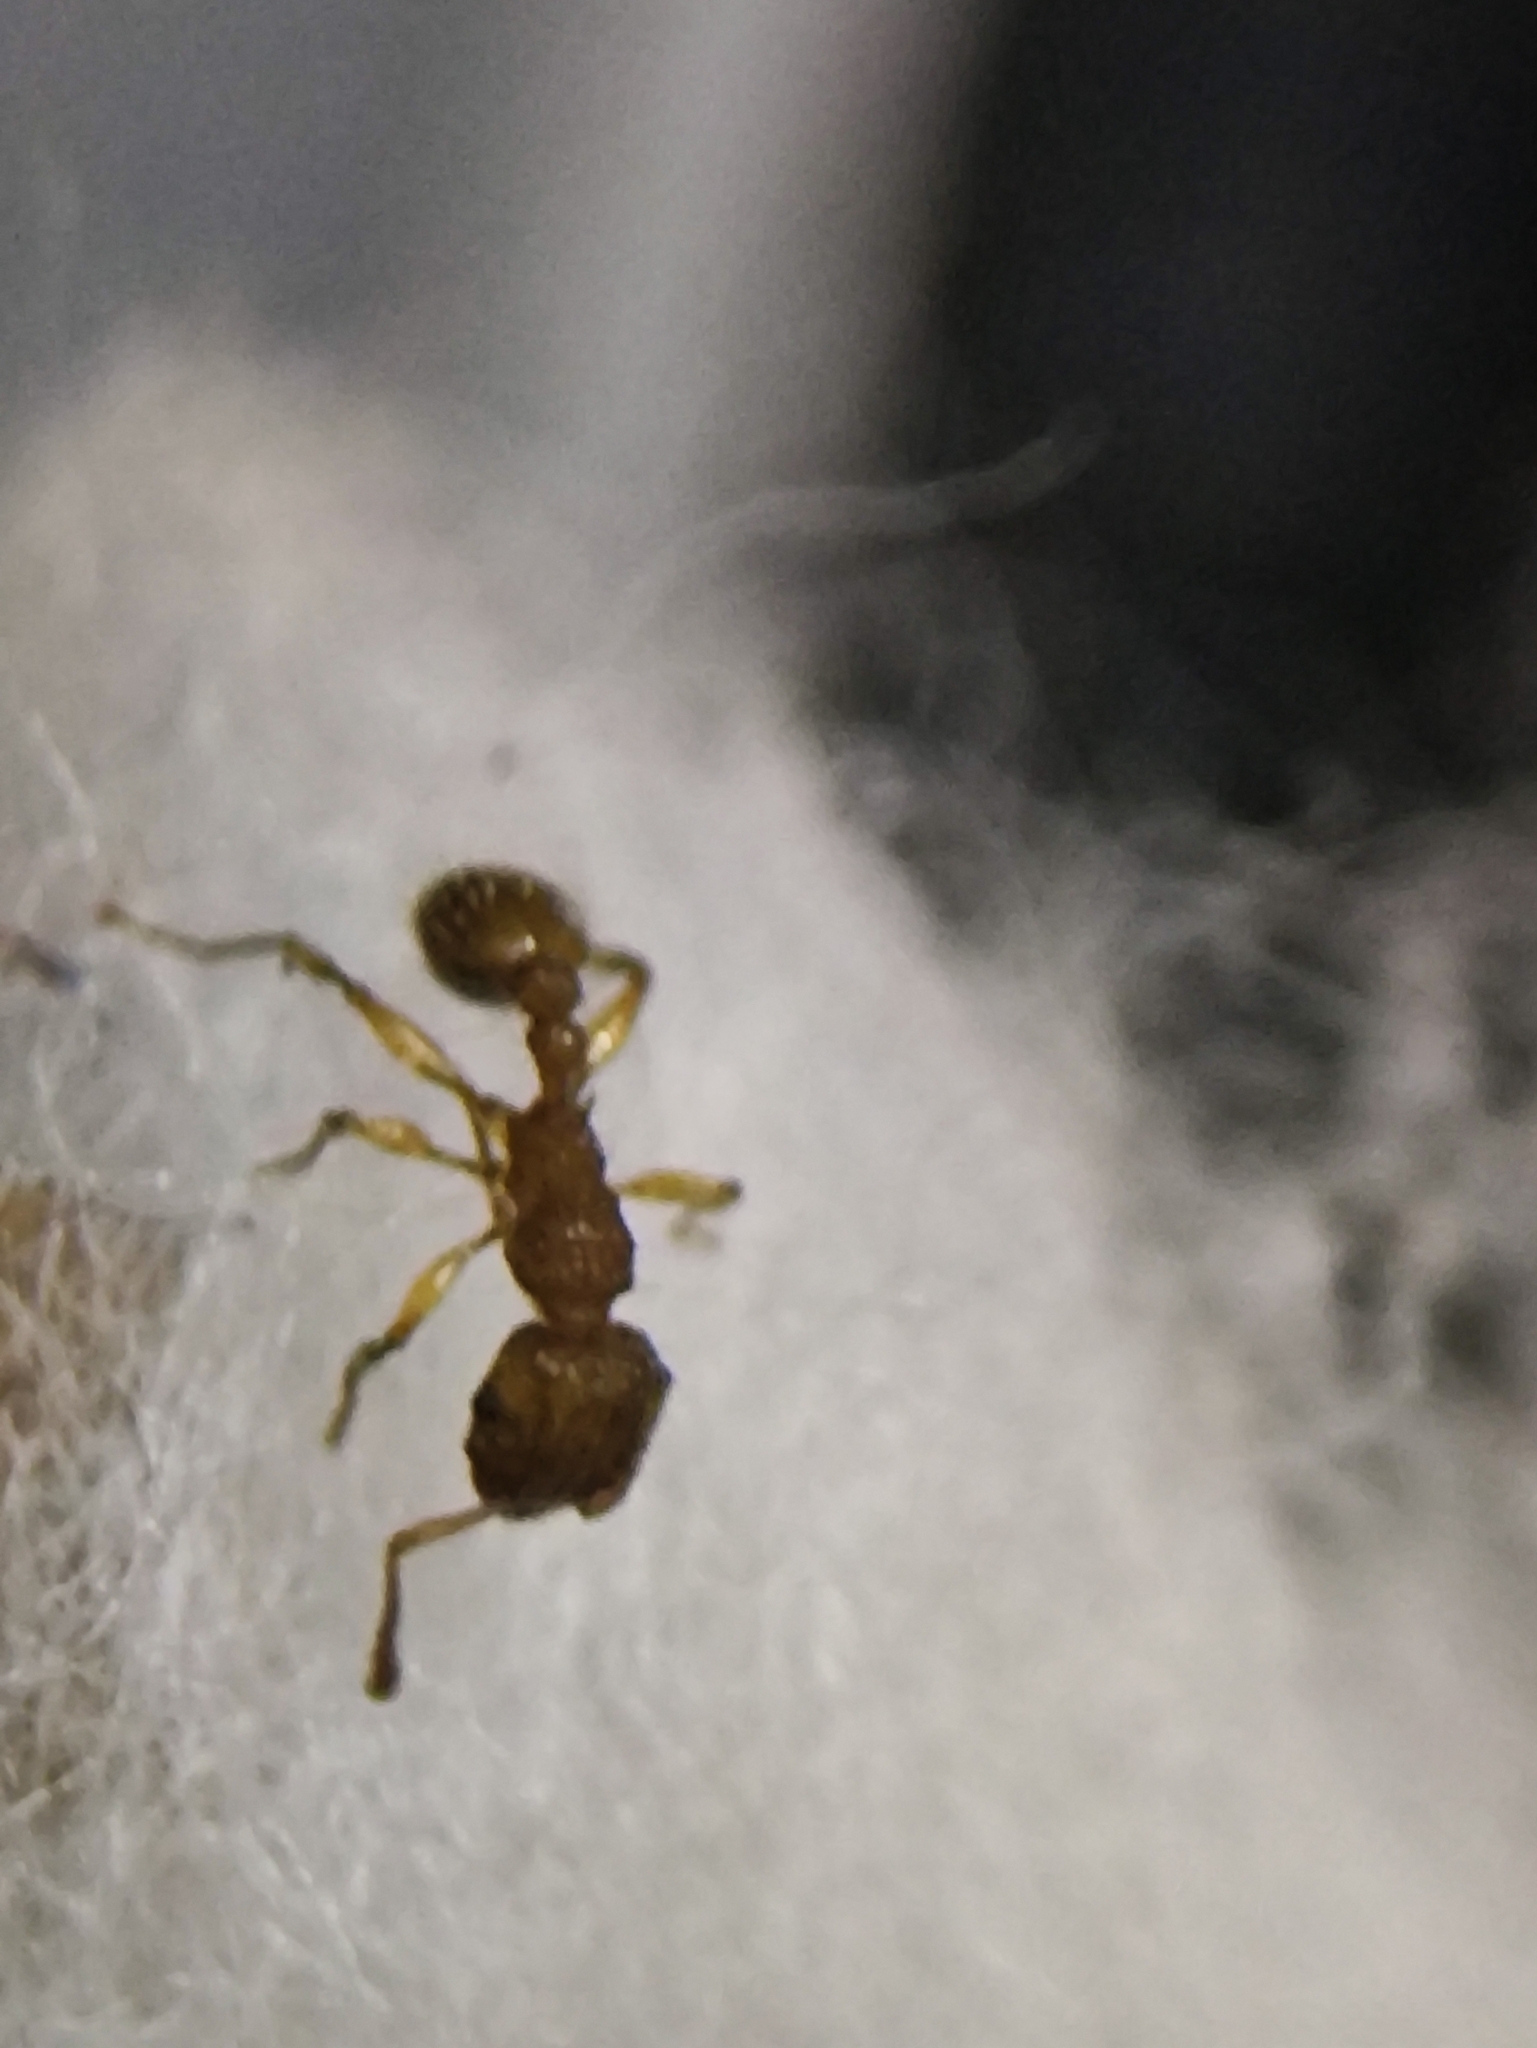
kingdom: Animalia
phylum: Arthropoda
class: Insecta
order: Hymenoptera
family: Formicidae
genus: Tetramorium
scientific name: Tetramorium bicarinatum
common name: Guinea ant
